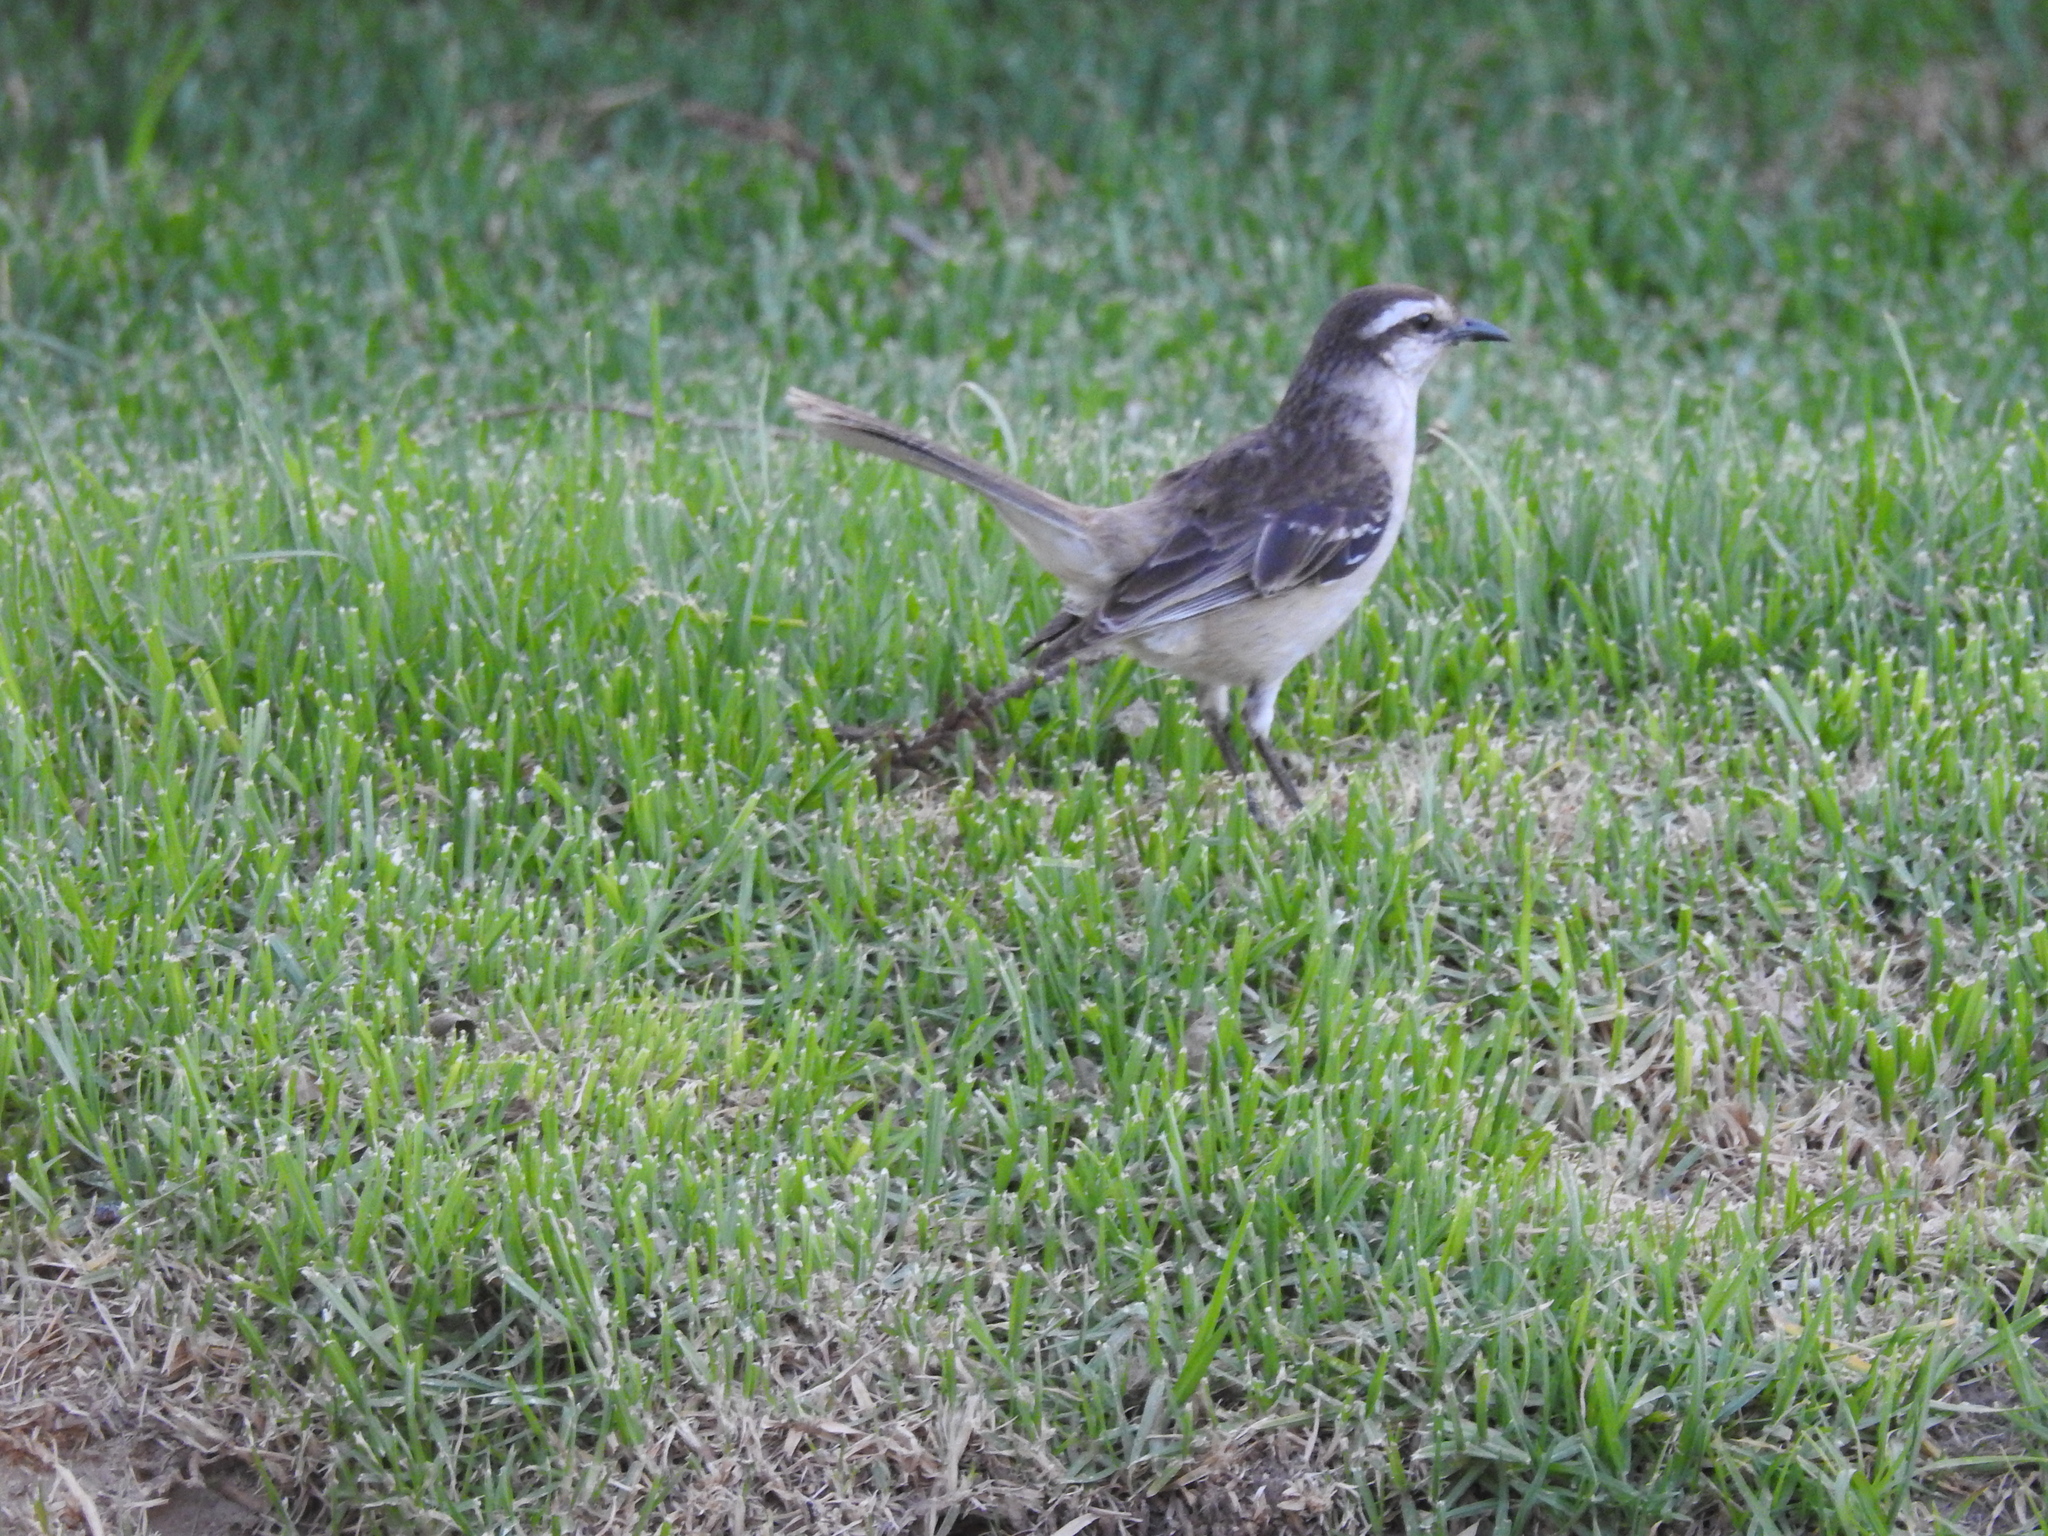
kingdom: Animalia
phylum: Chordata
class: Aves
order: Passeriformes
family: Mimidae
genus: Mimus
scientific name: Mimus saturninus
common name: Chalk-browed mockingbird
